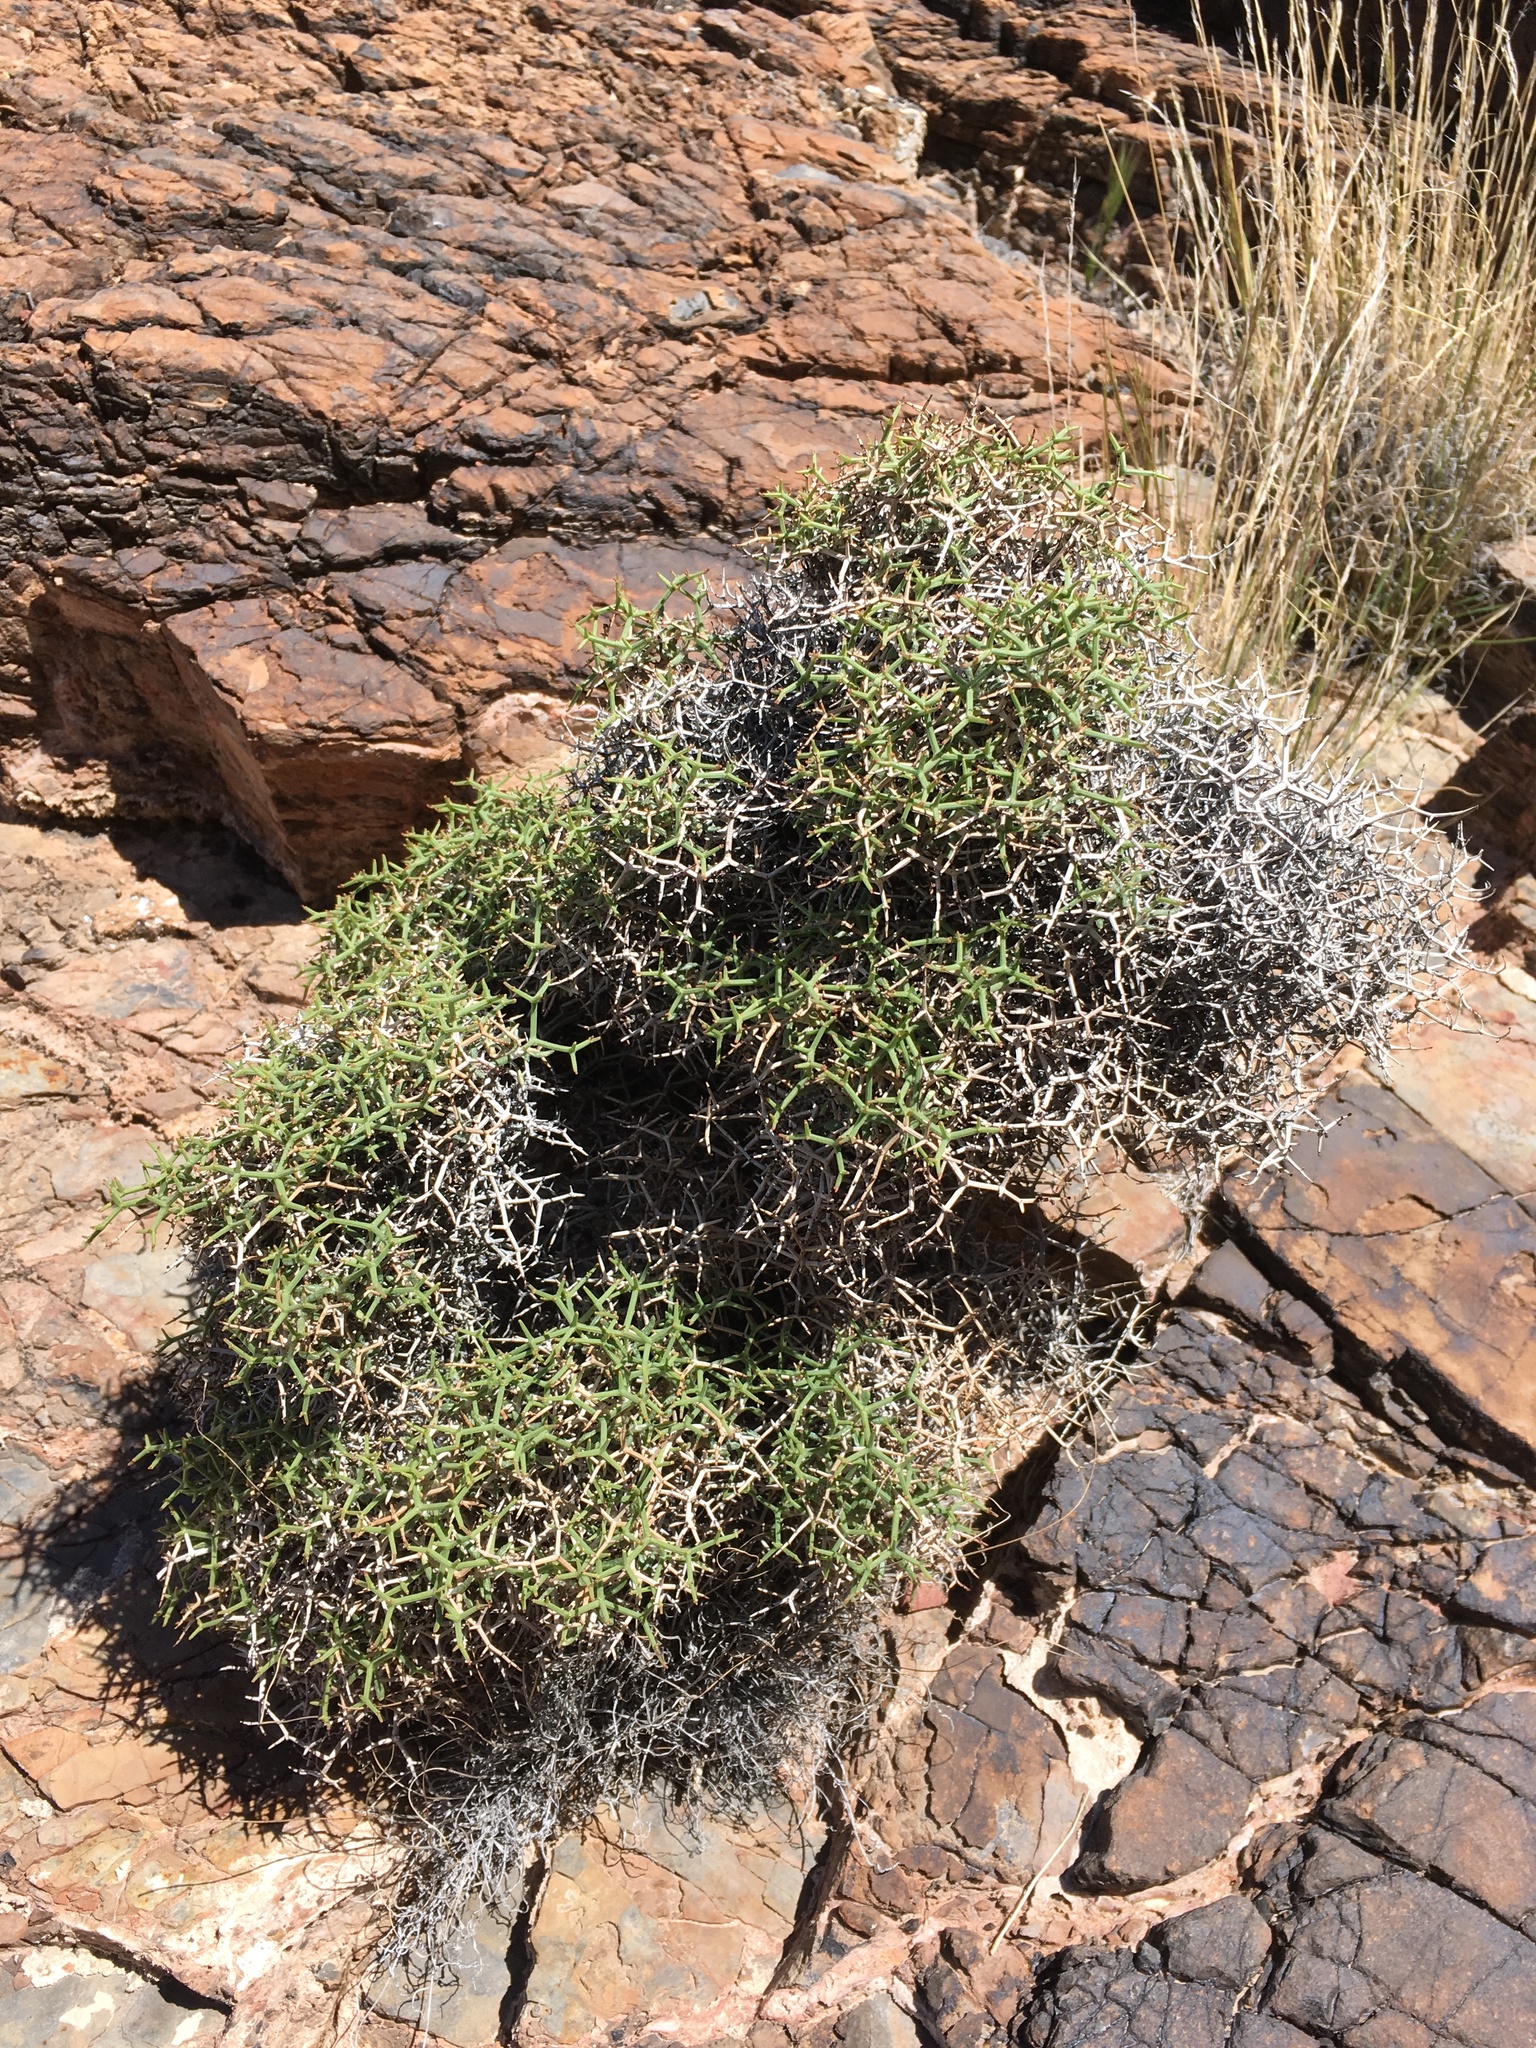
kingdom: Plantae
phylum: Tracheophyta
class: Magnoliopsida
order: Caryophyllales
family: Polygonaceae
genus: Eriogonum
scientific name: Eriogonum heermannii
